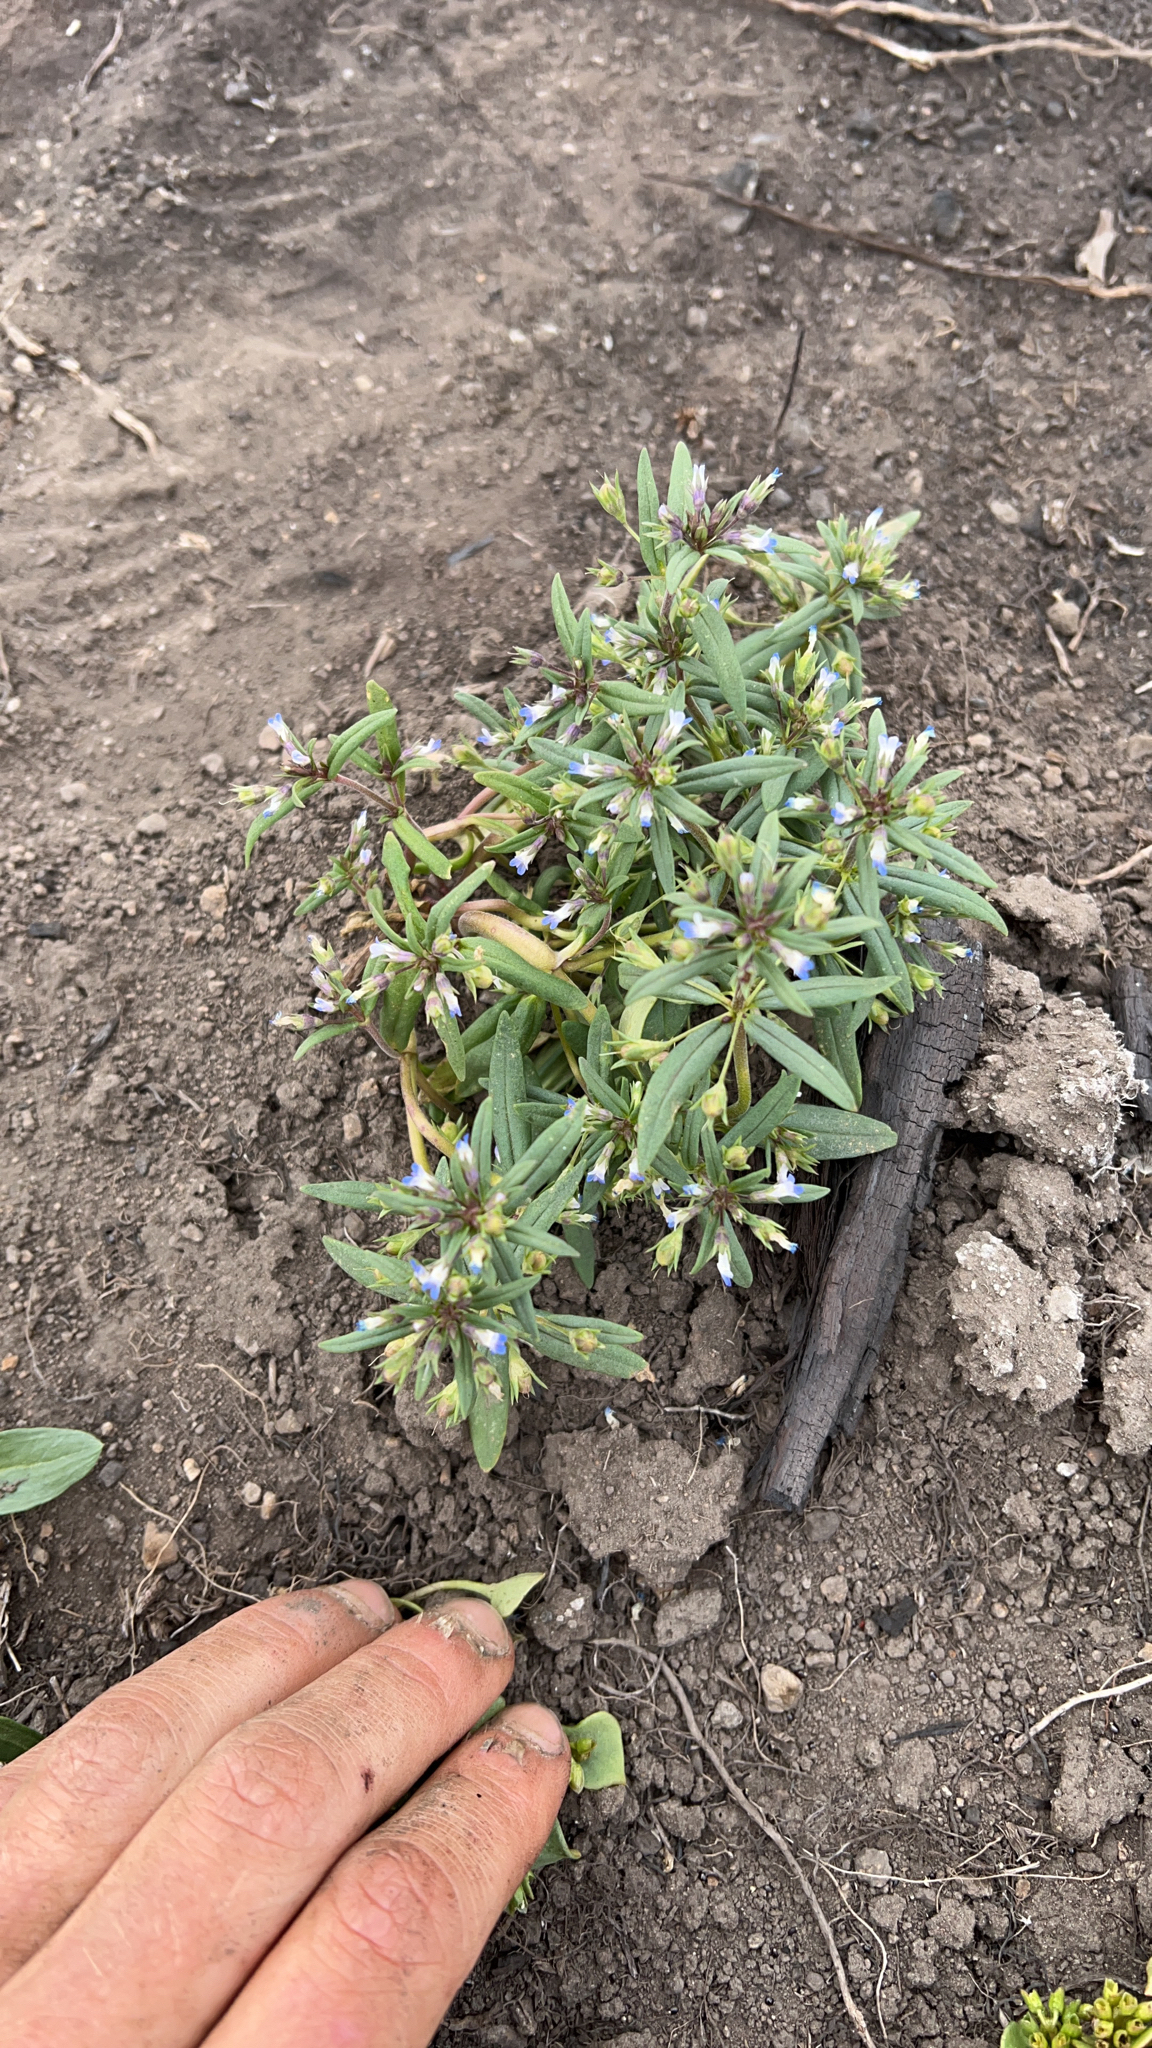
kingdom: Plantae
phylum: Tracheophyta
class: Magnoliopsida
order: Lamiales
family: Plantaginaceae
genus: Collinsia
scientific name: Collinsia parviflora
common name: Blue-lips
